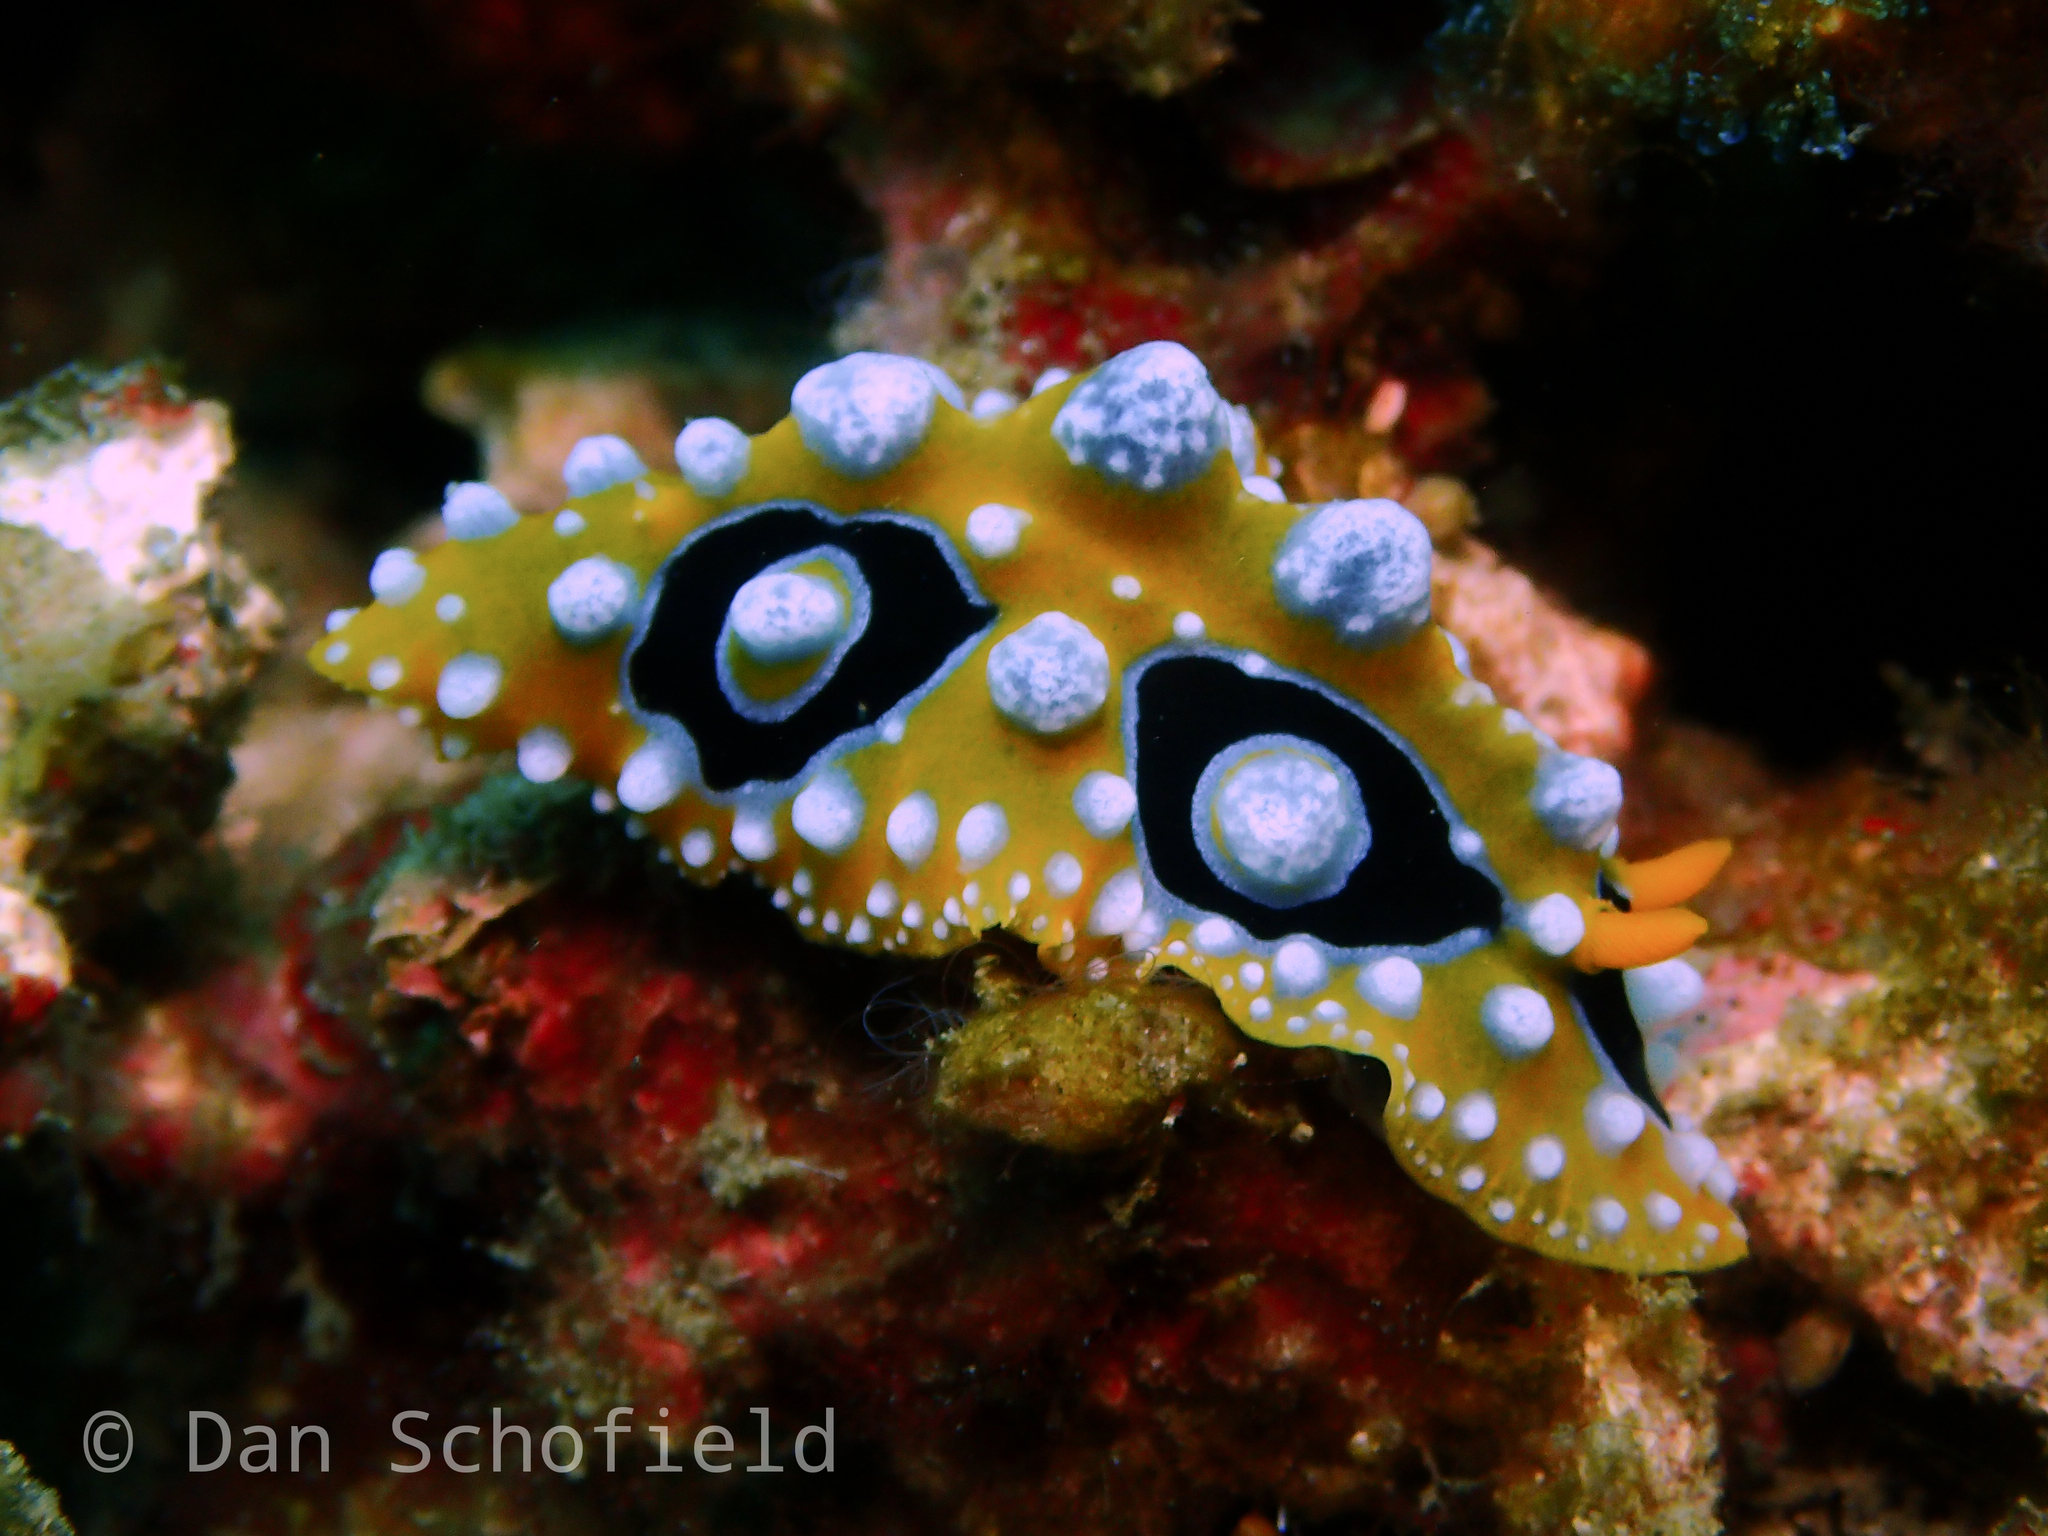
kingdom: Animalia
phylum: Mollusca
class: Gastropoda
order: Nudibranchia
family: Phyllidiidae
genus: Phyllidia
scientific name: Phyllidia ocellata
